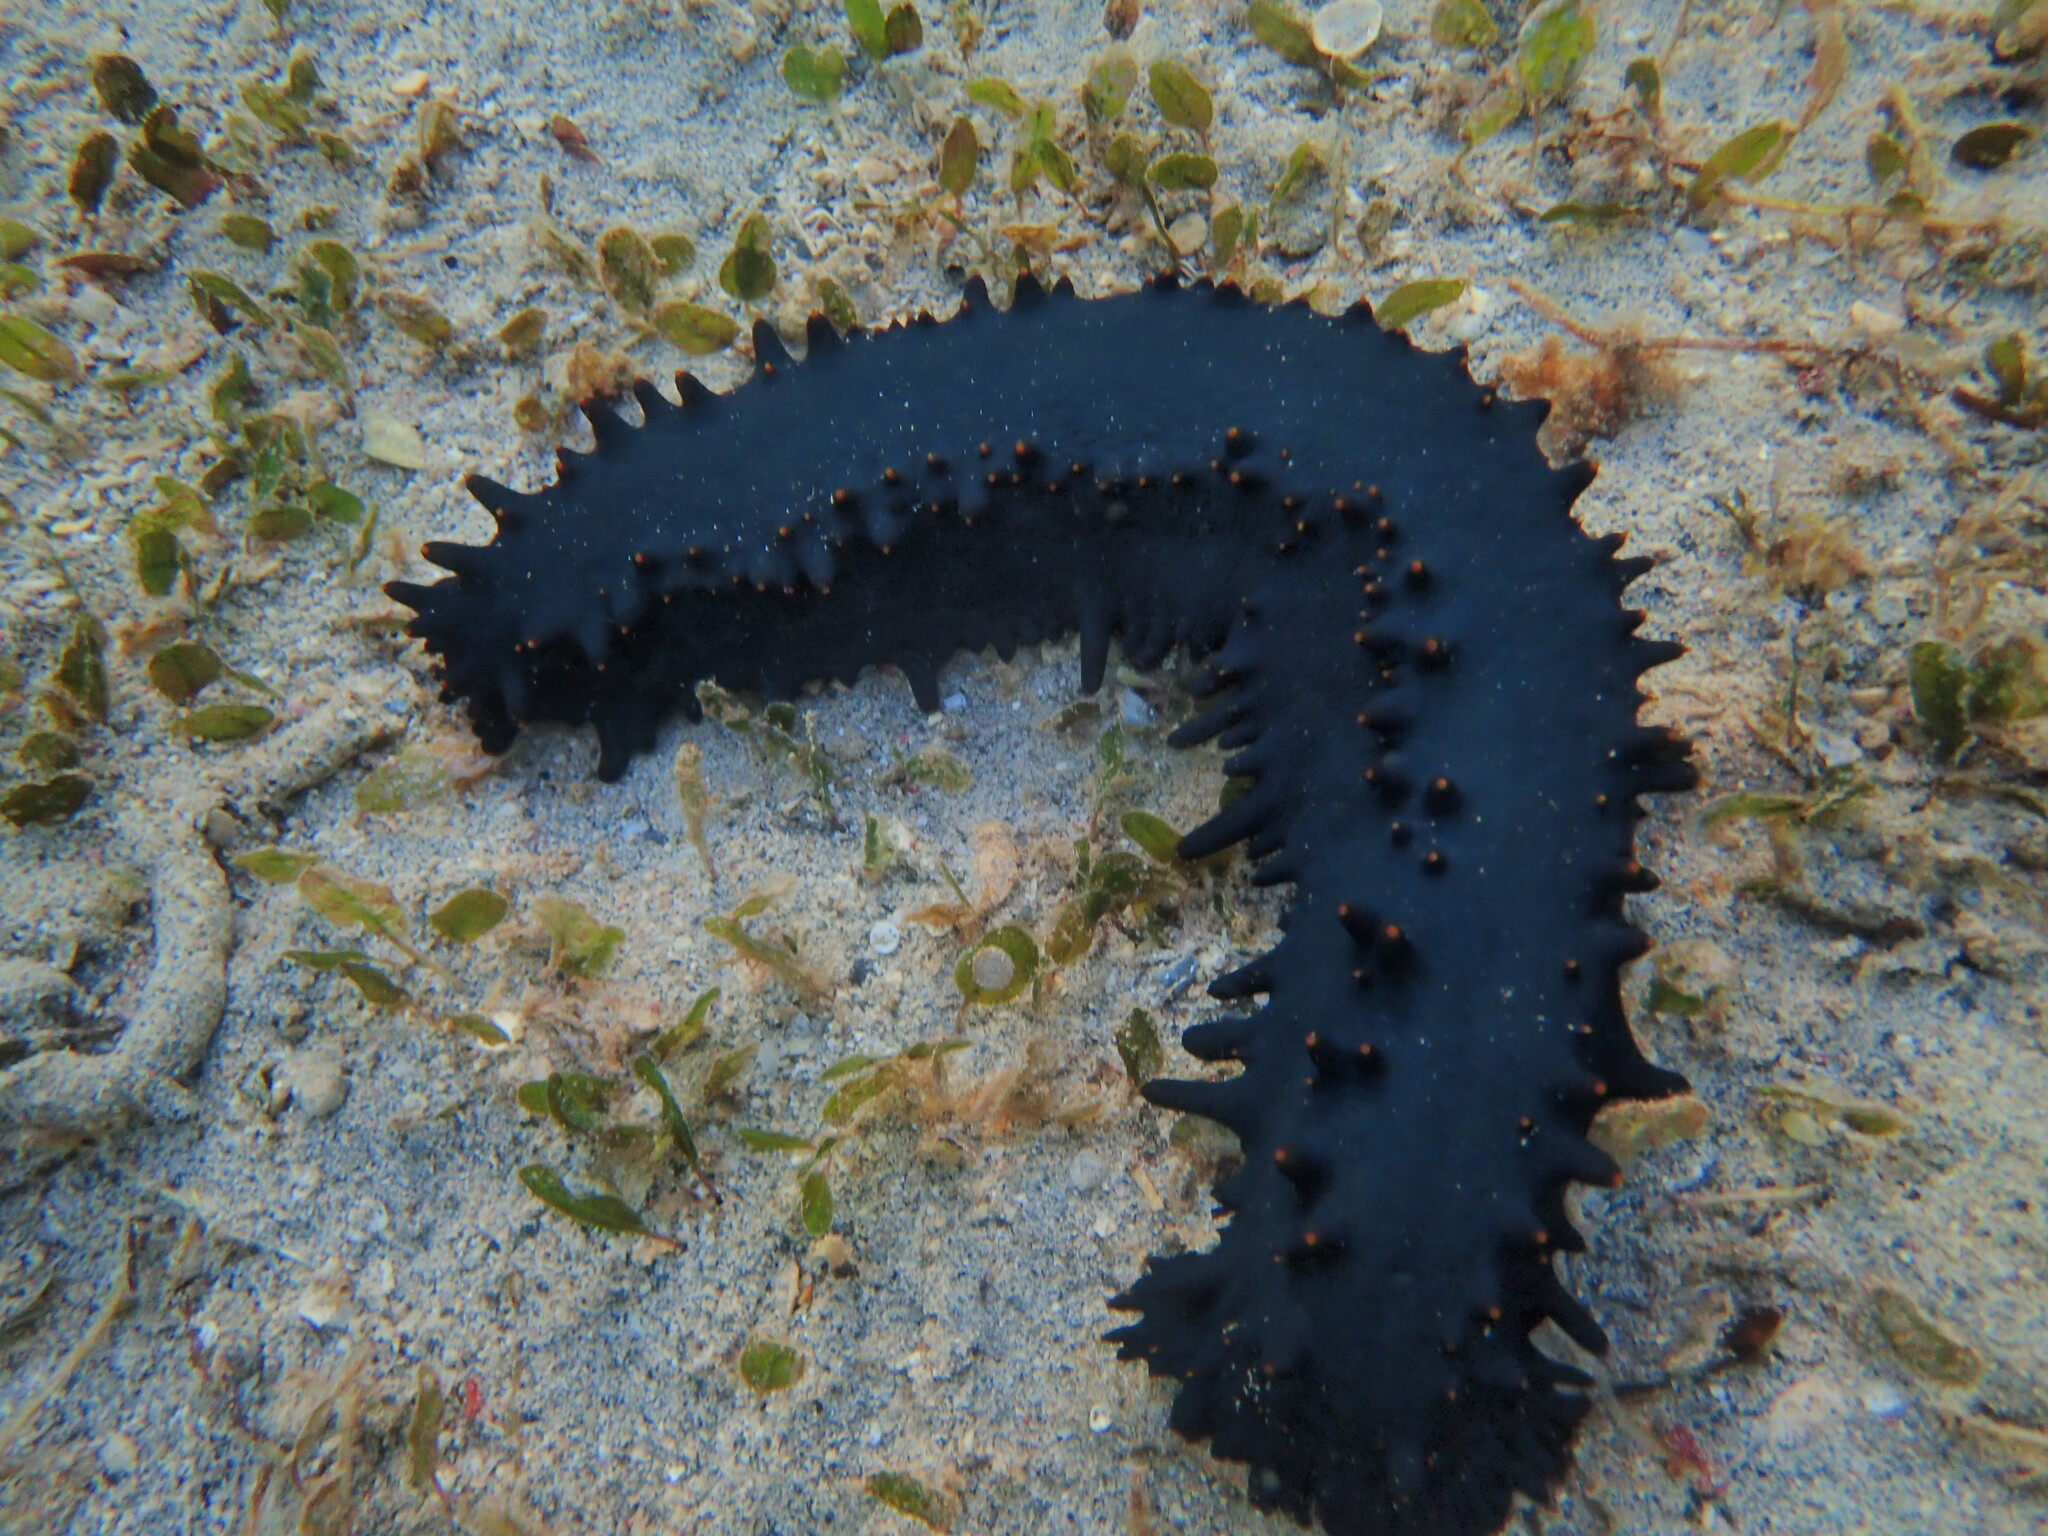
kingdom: Animalia
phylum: Echinodermata
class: Holothuroidea
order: Synallactida
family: Stichopodidae
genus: Stichopus
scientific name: Stichopus chloronotus
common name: Greenfish
